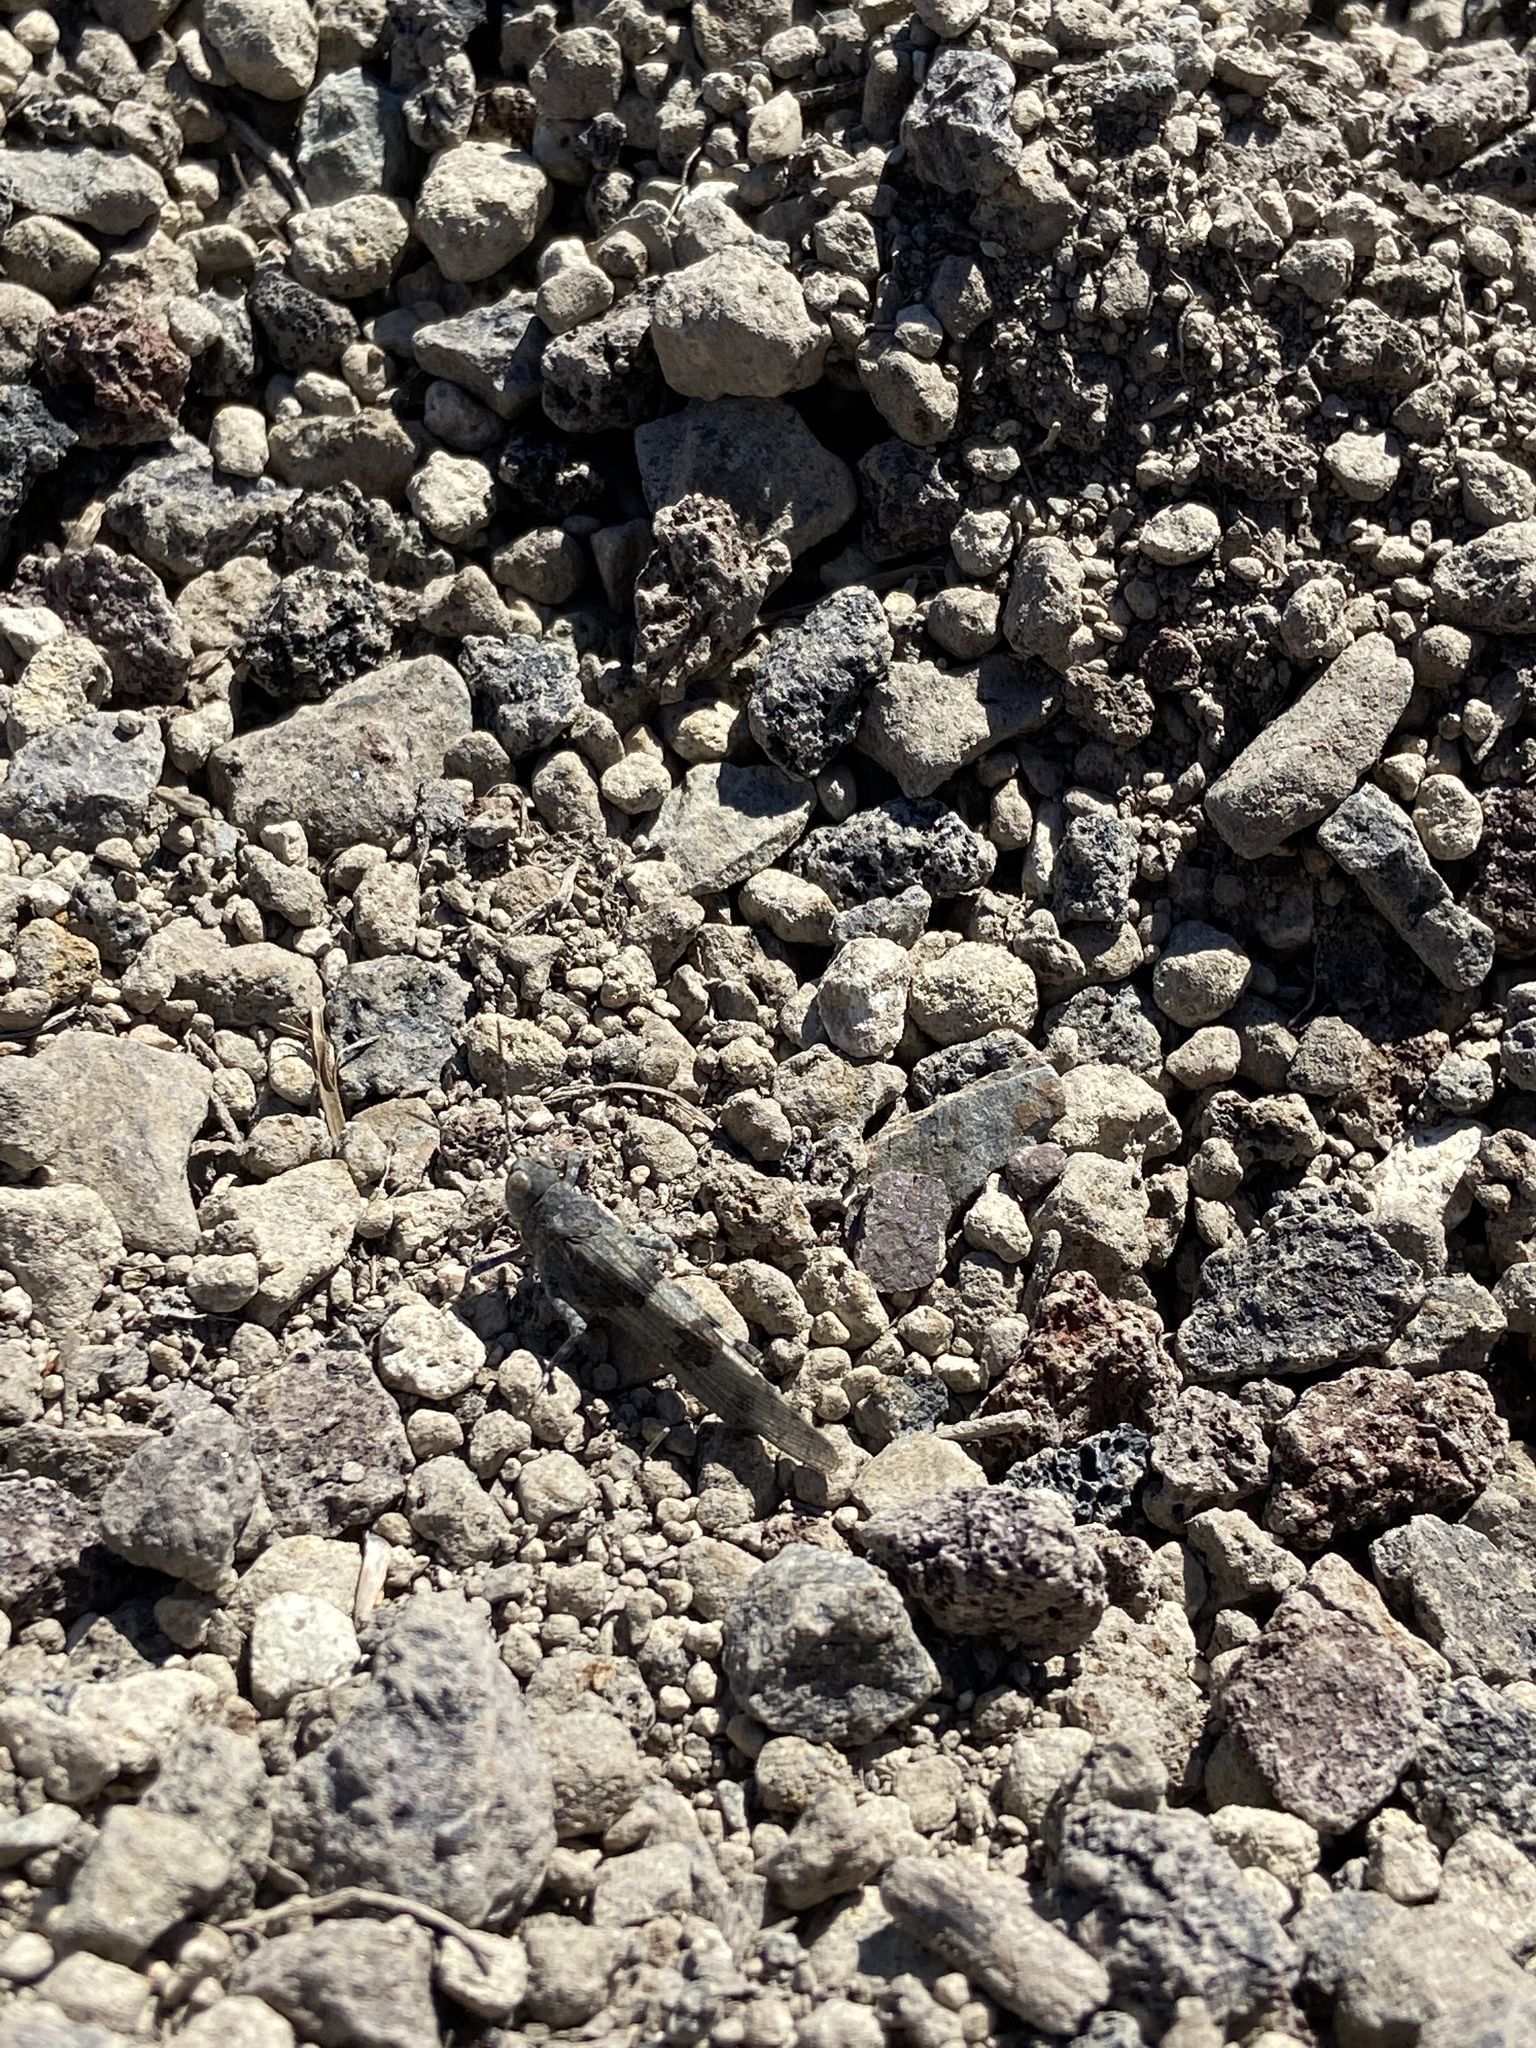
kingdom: Animalia
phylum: Arthropoda
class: Insecta
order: Orthoptera
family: Acrididae
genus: Sphingonotus
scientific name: Sphingonotus caerulans
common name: Blue-winged locust
